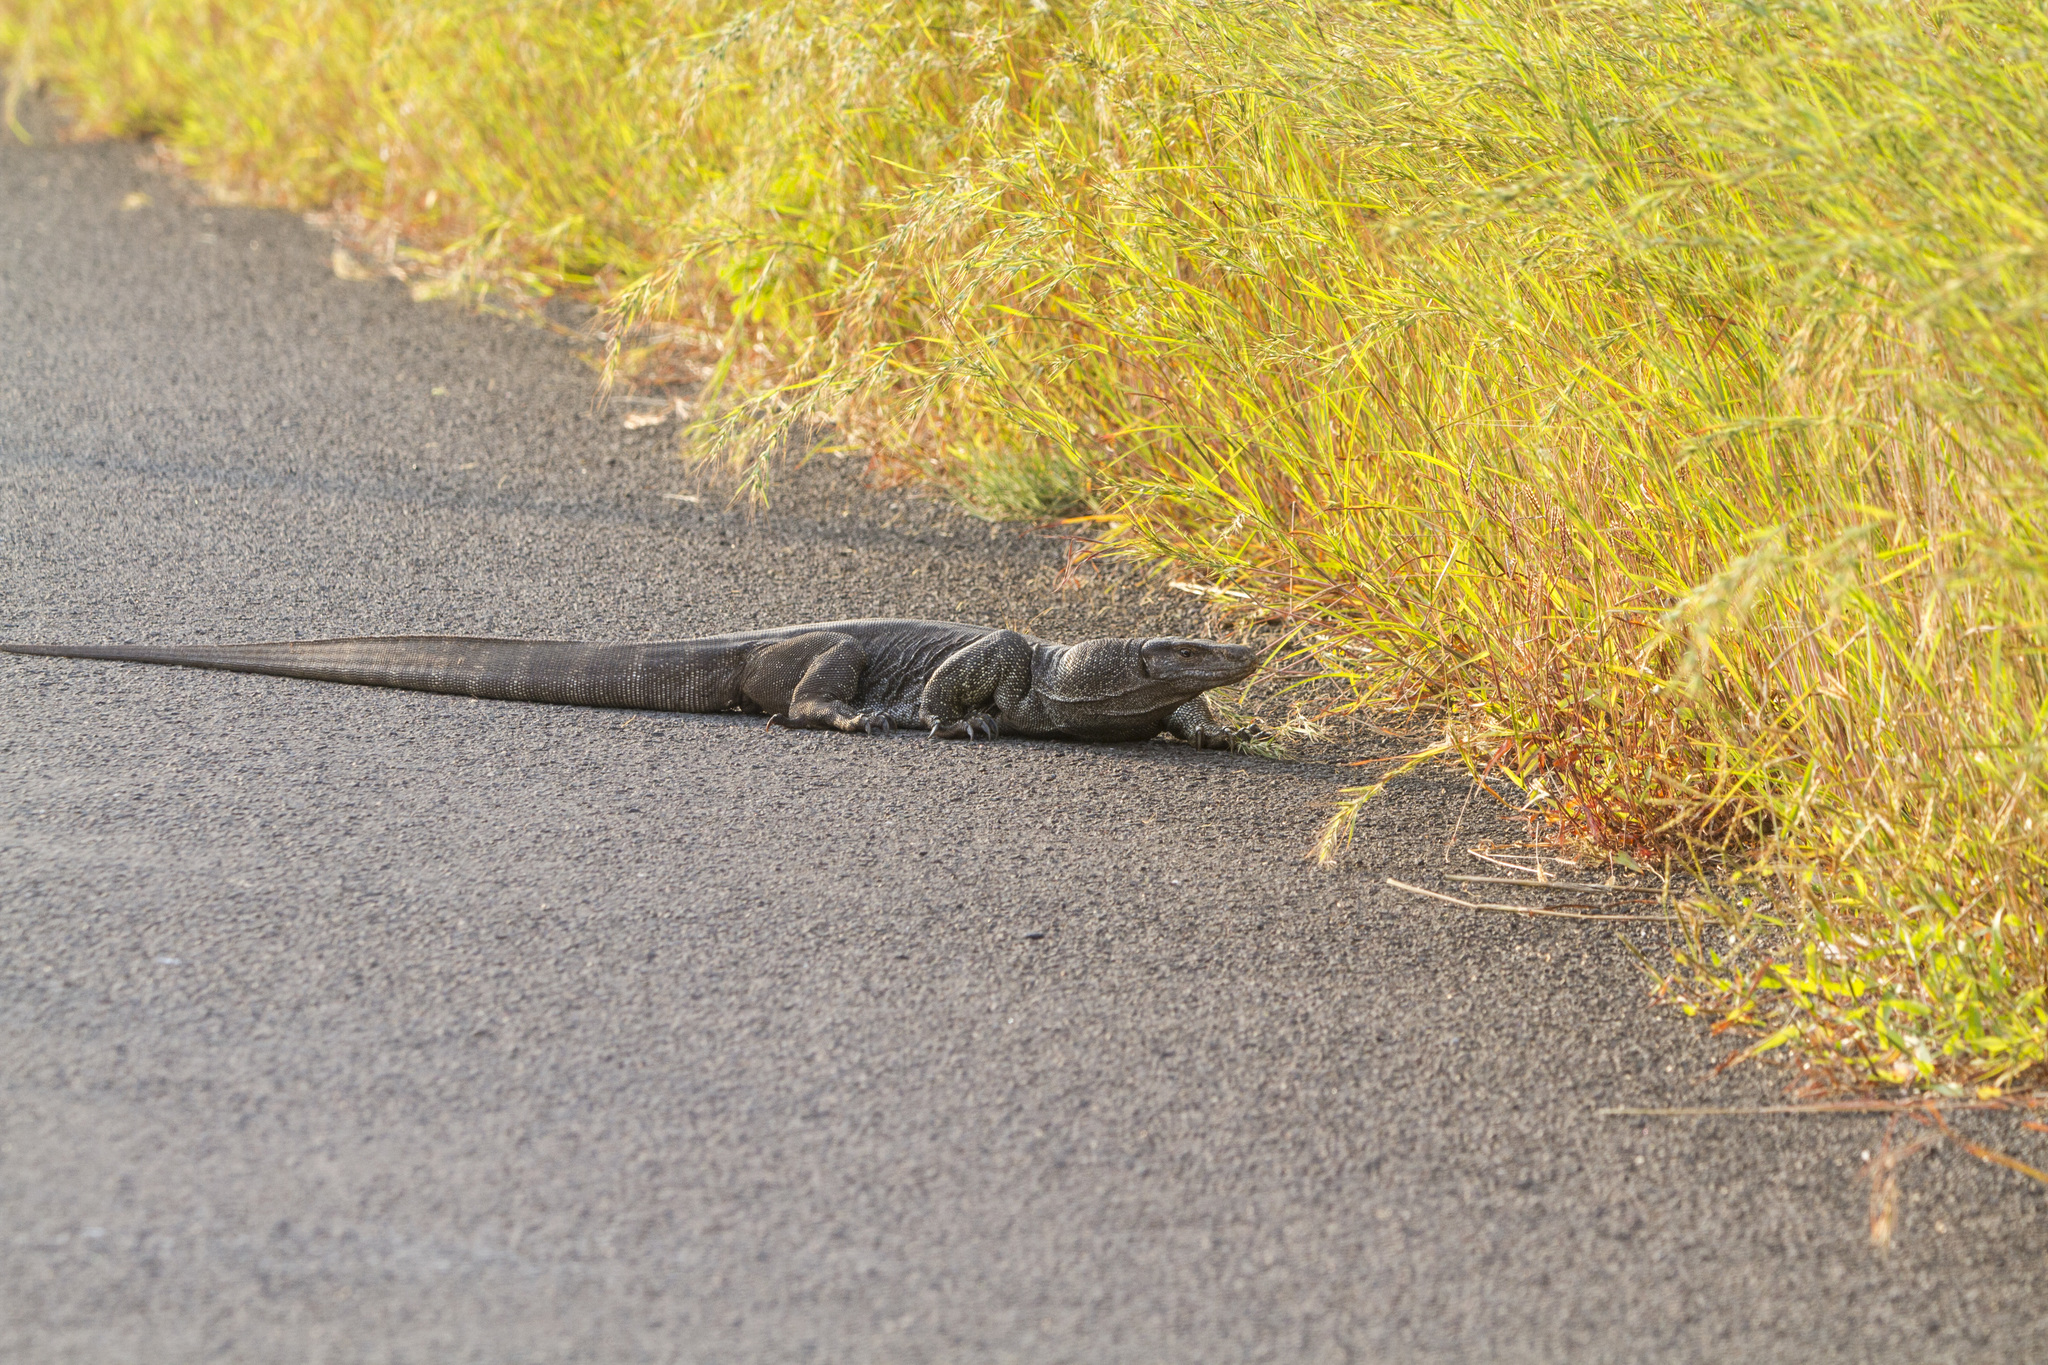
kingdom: Animalia
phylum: Chordata
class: Squamata
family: Varanidae
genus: Varanus
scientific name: Varanus bengalensis
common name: Bengal monitor
